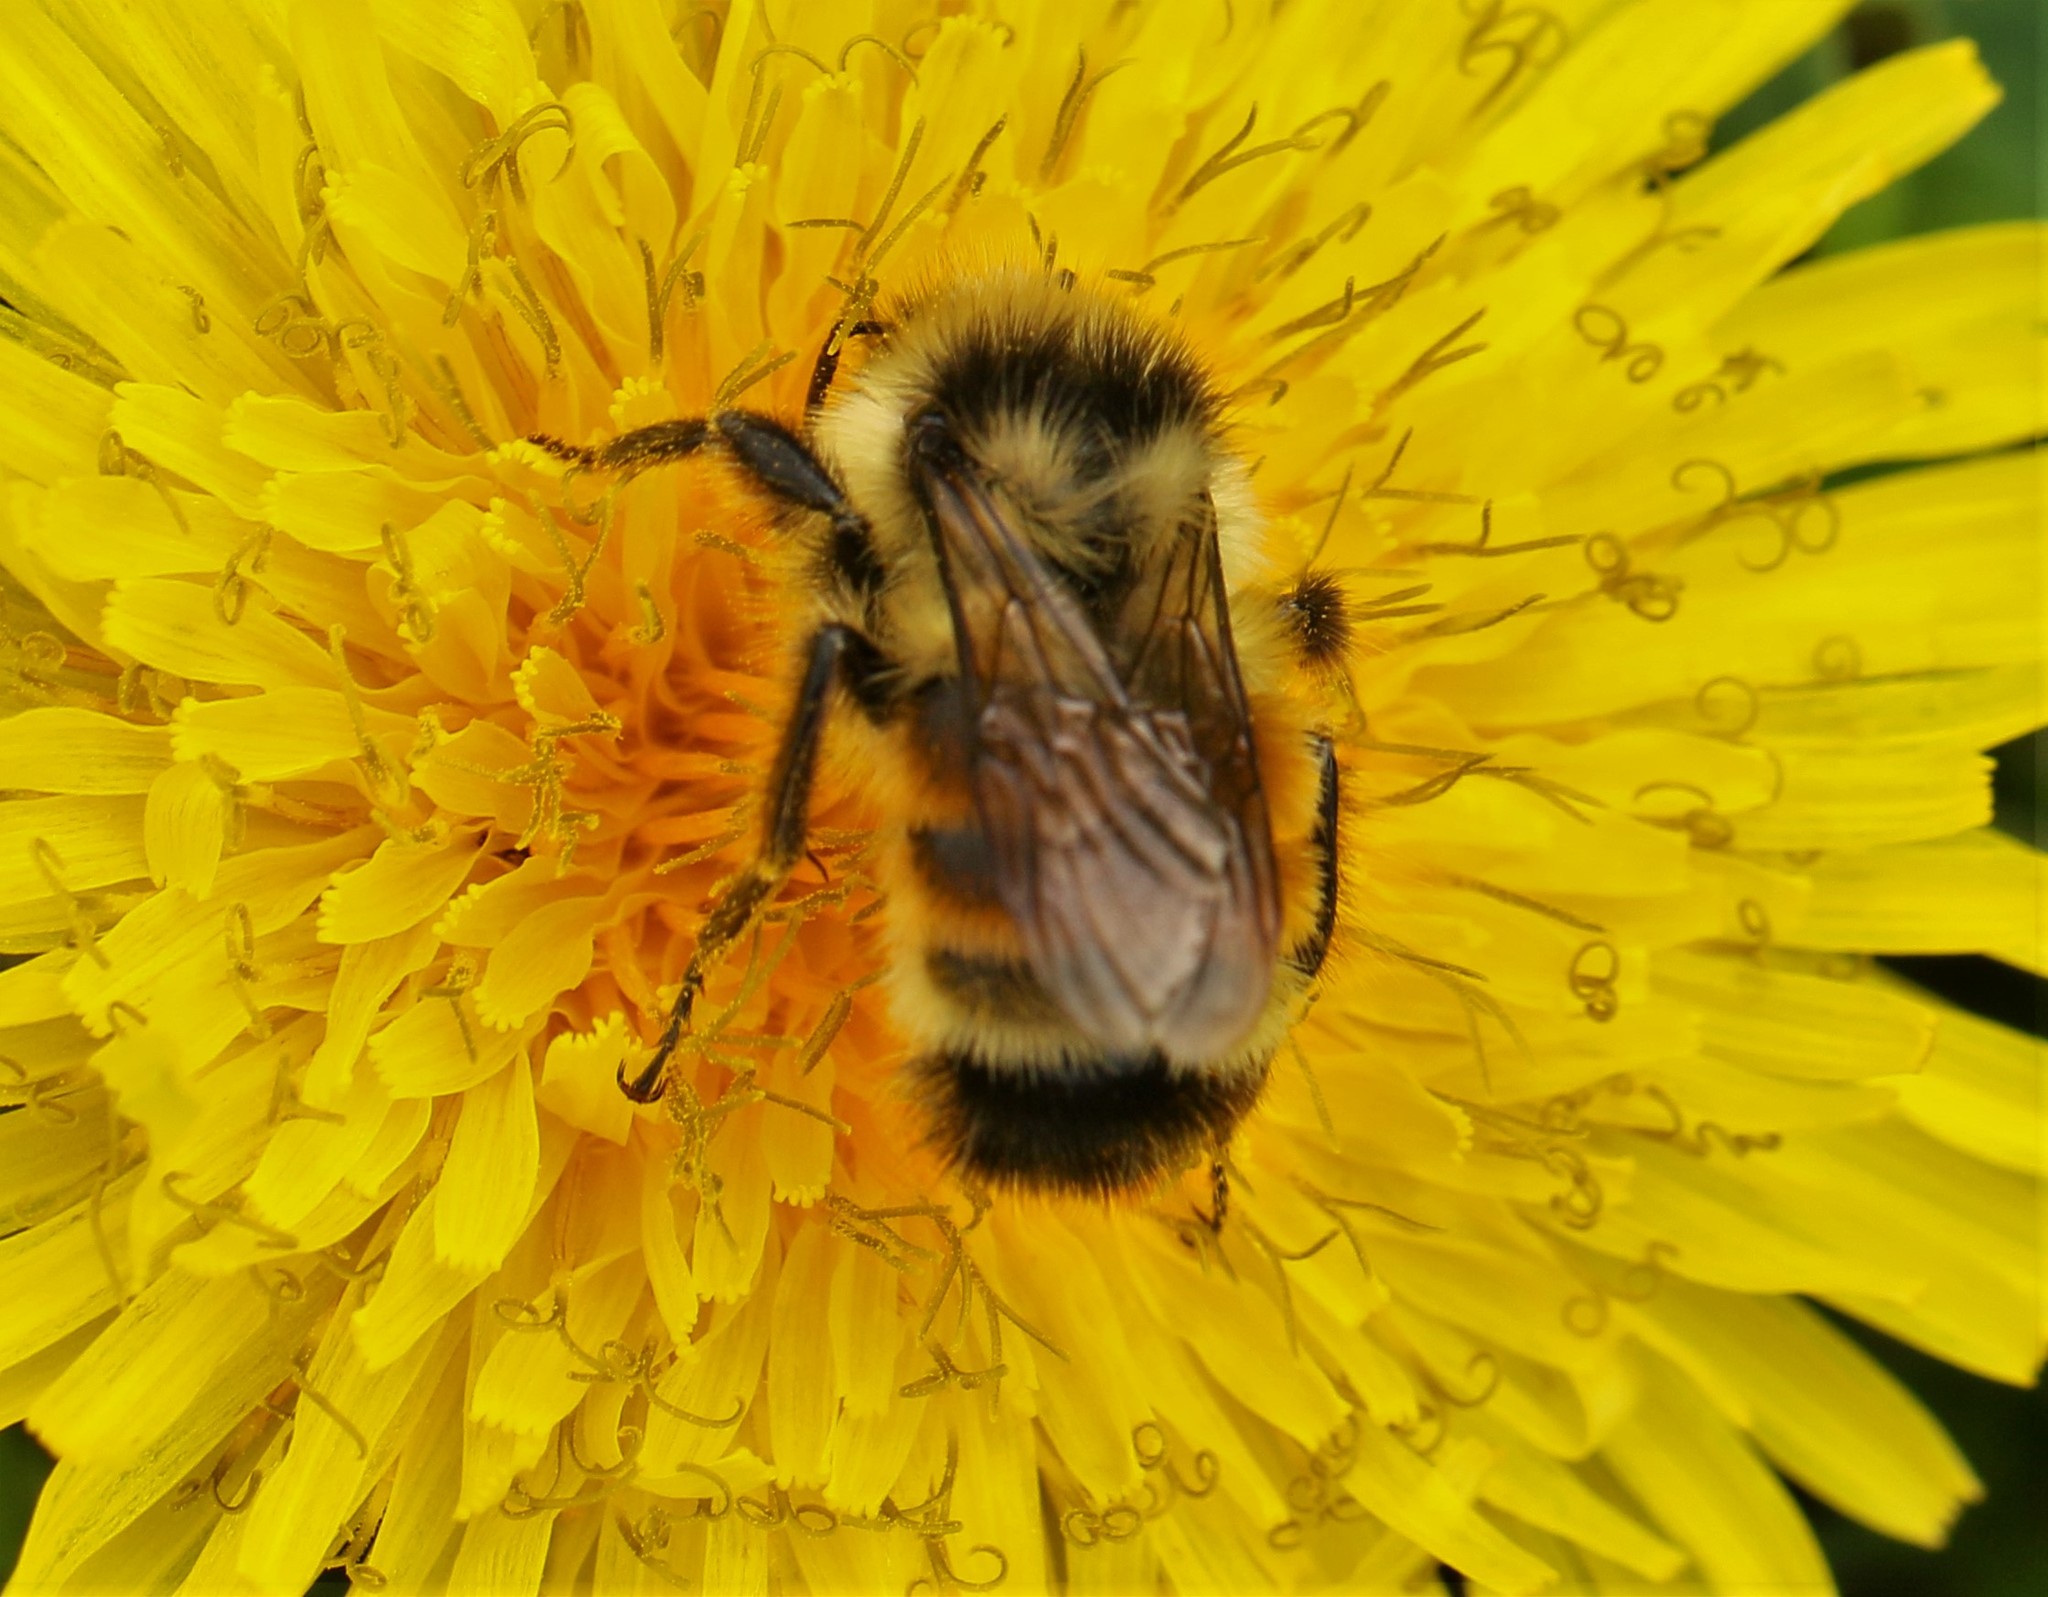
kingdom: Animalia
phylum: Arthropoda
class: Insecta
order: Hymenoptera
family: Apidae
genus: Bombus
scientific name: Bombus ternarius
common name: Tri-colored bumble bee
